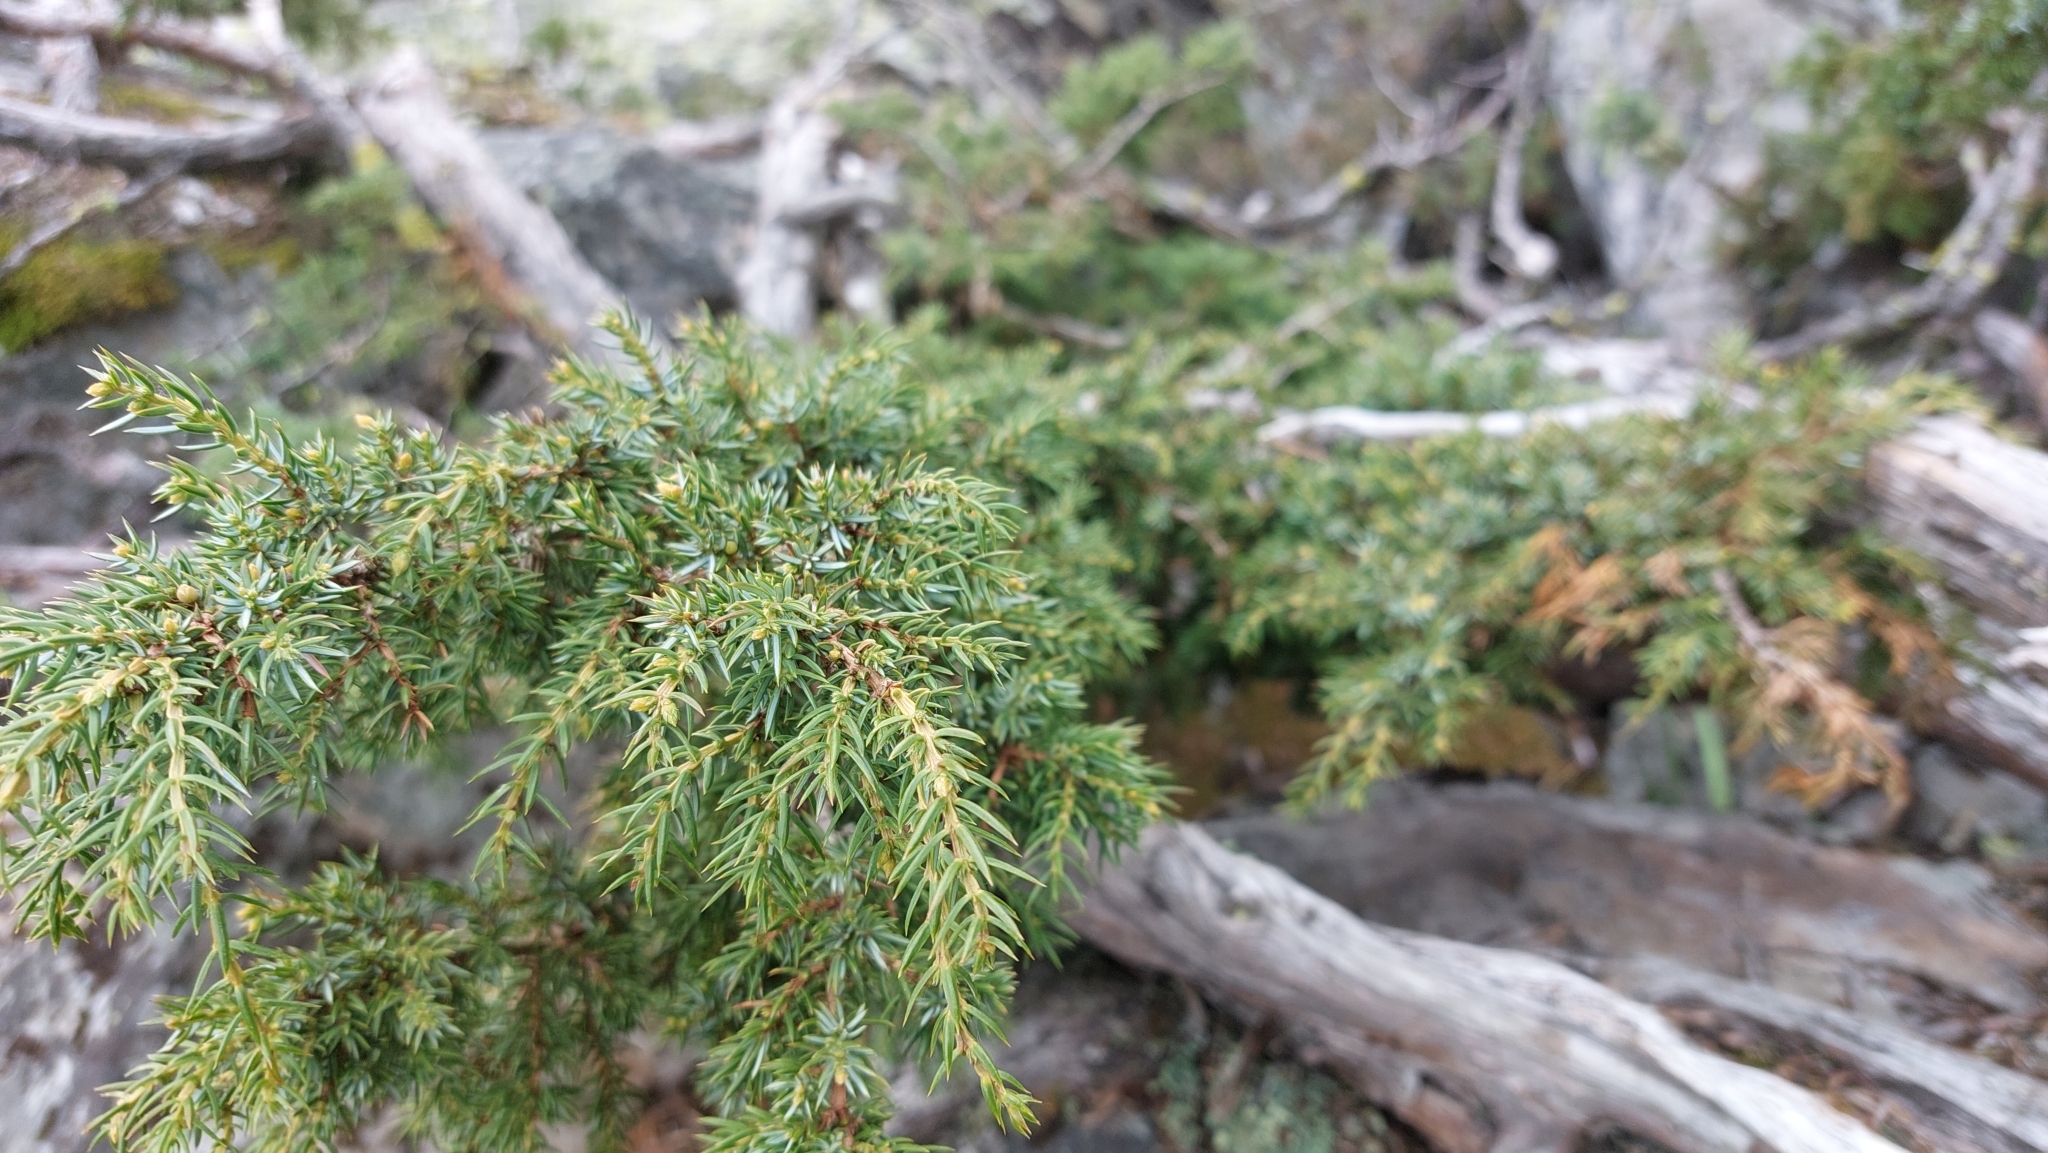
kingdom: Plantae
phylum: Tracheophyta
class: Pinopsida
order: Pinales
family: Cupressaceae
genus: Juniperus
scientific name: Juniperus communis
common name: Common juniper
